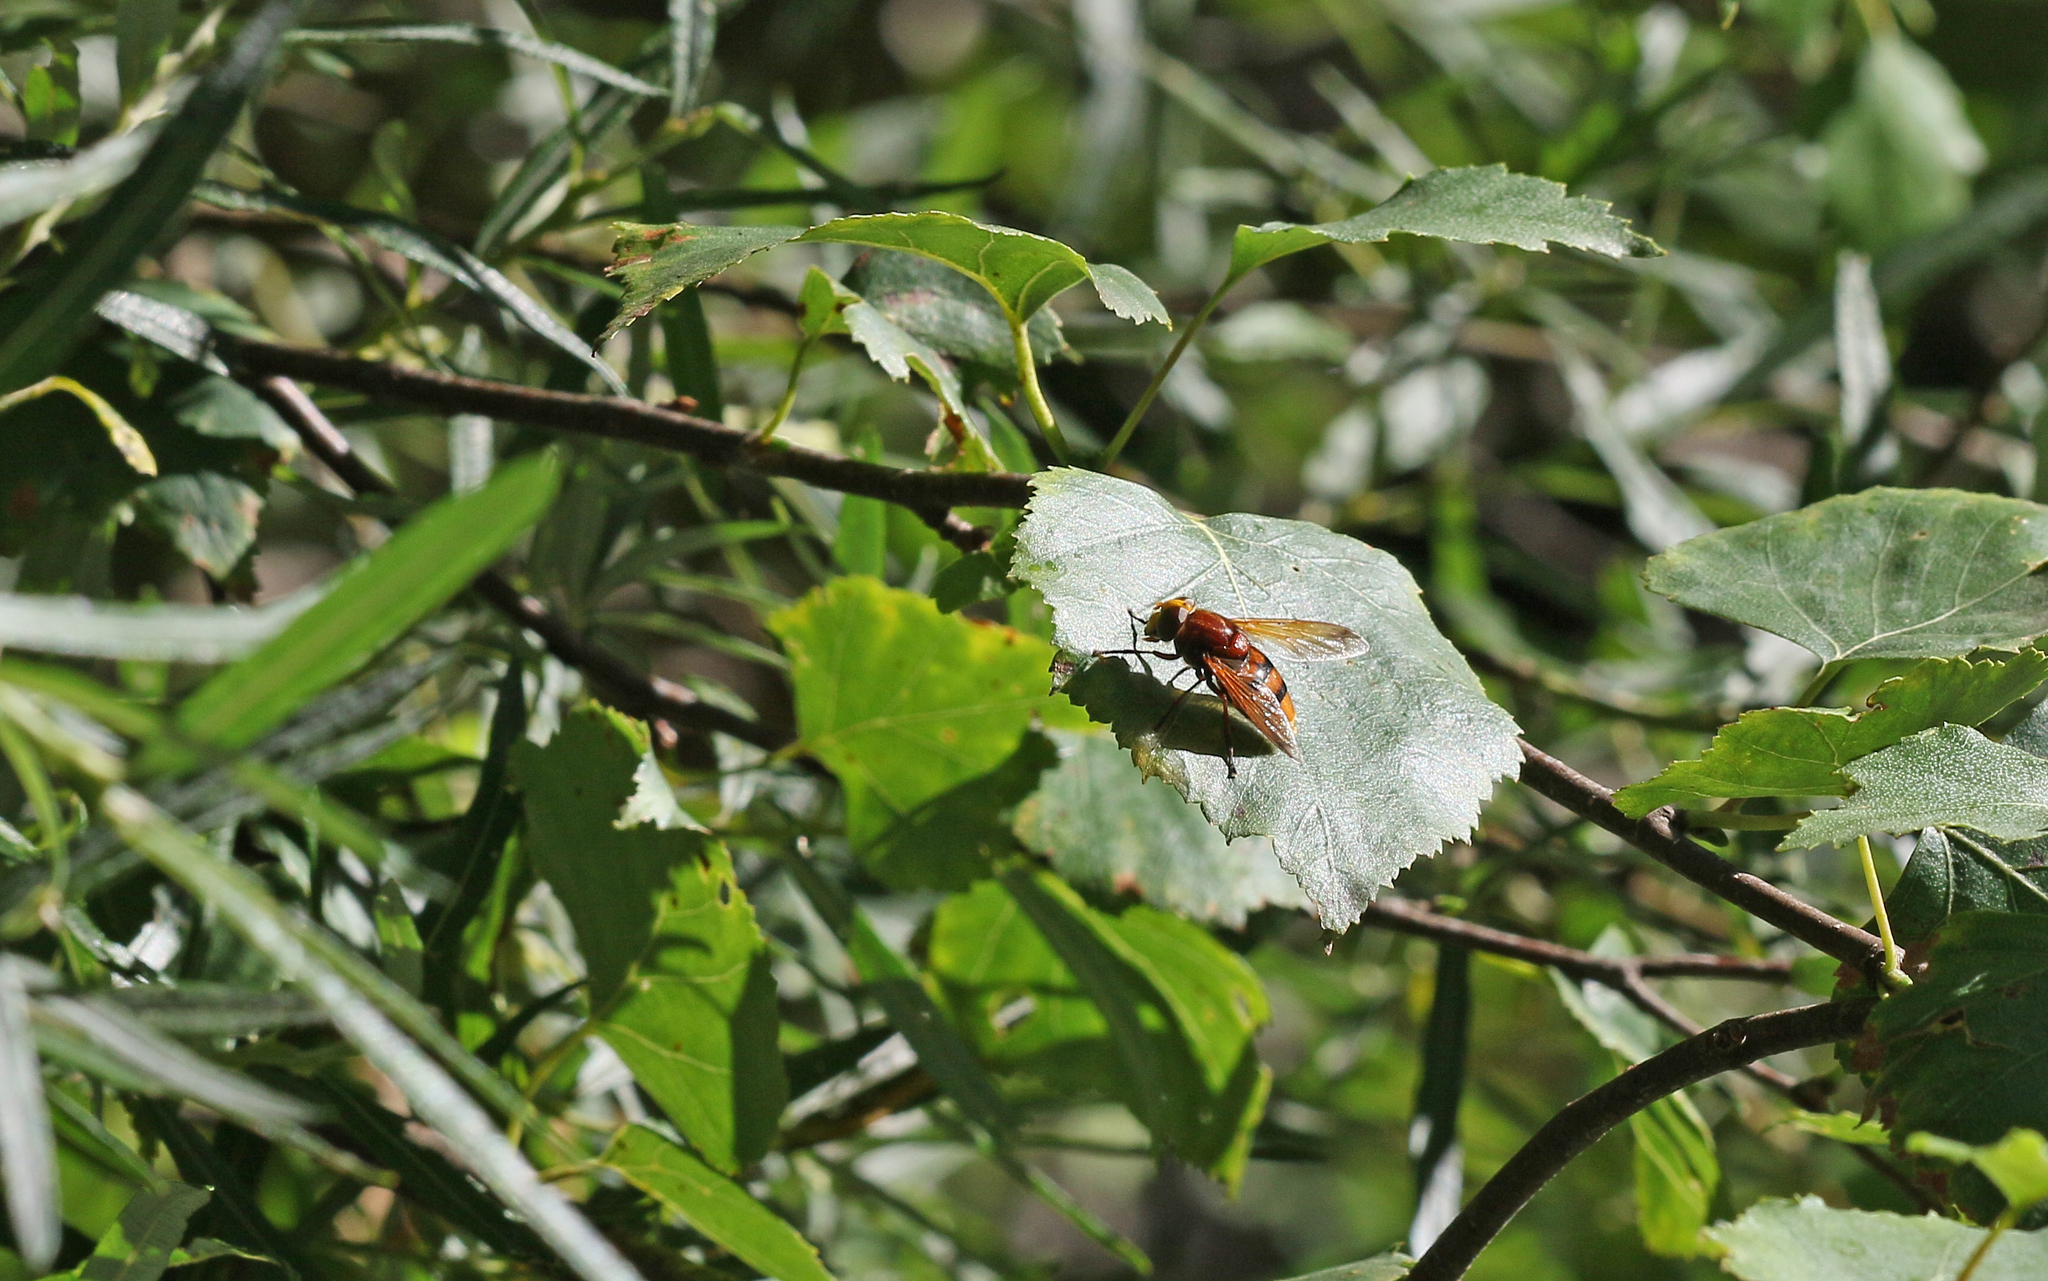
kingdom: Animalia
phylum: Arthropoda
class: Insecta
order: Diptera
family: Syrphidae
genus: Volucella
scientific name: Volucella zonaria
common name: Hornet hoverfly
